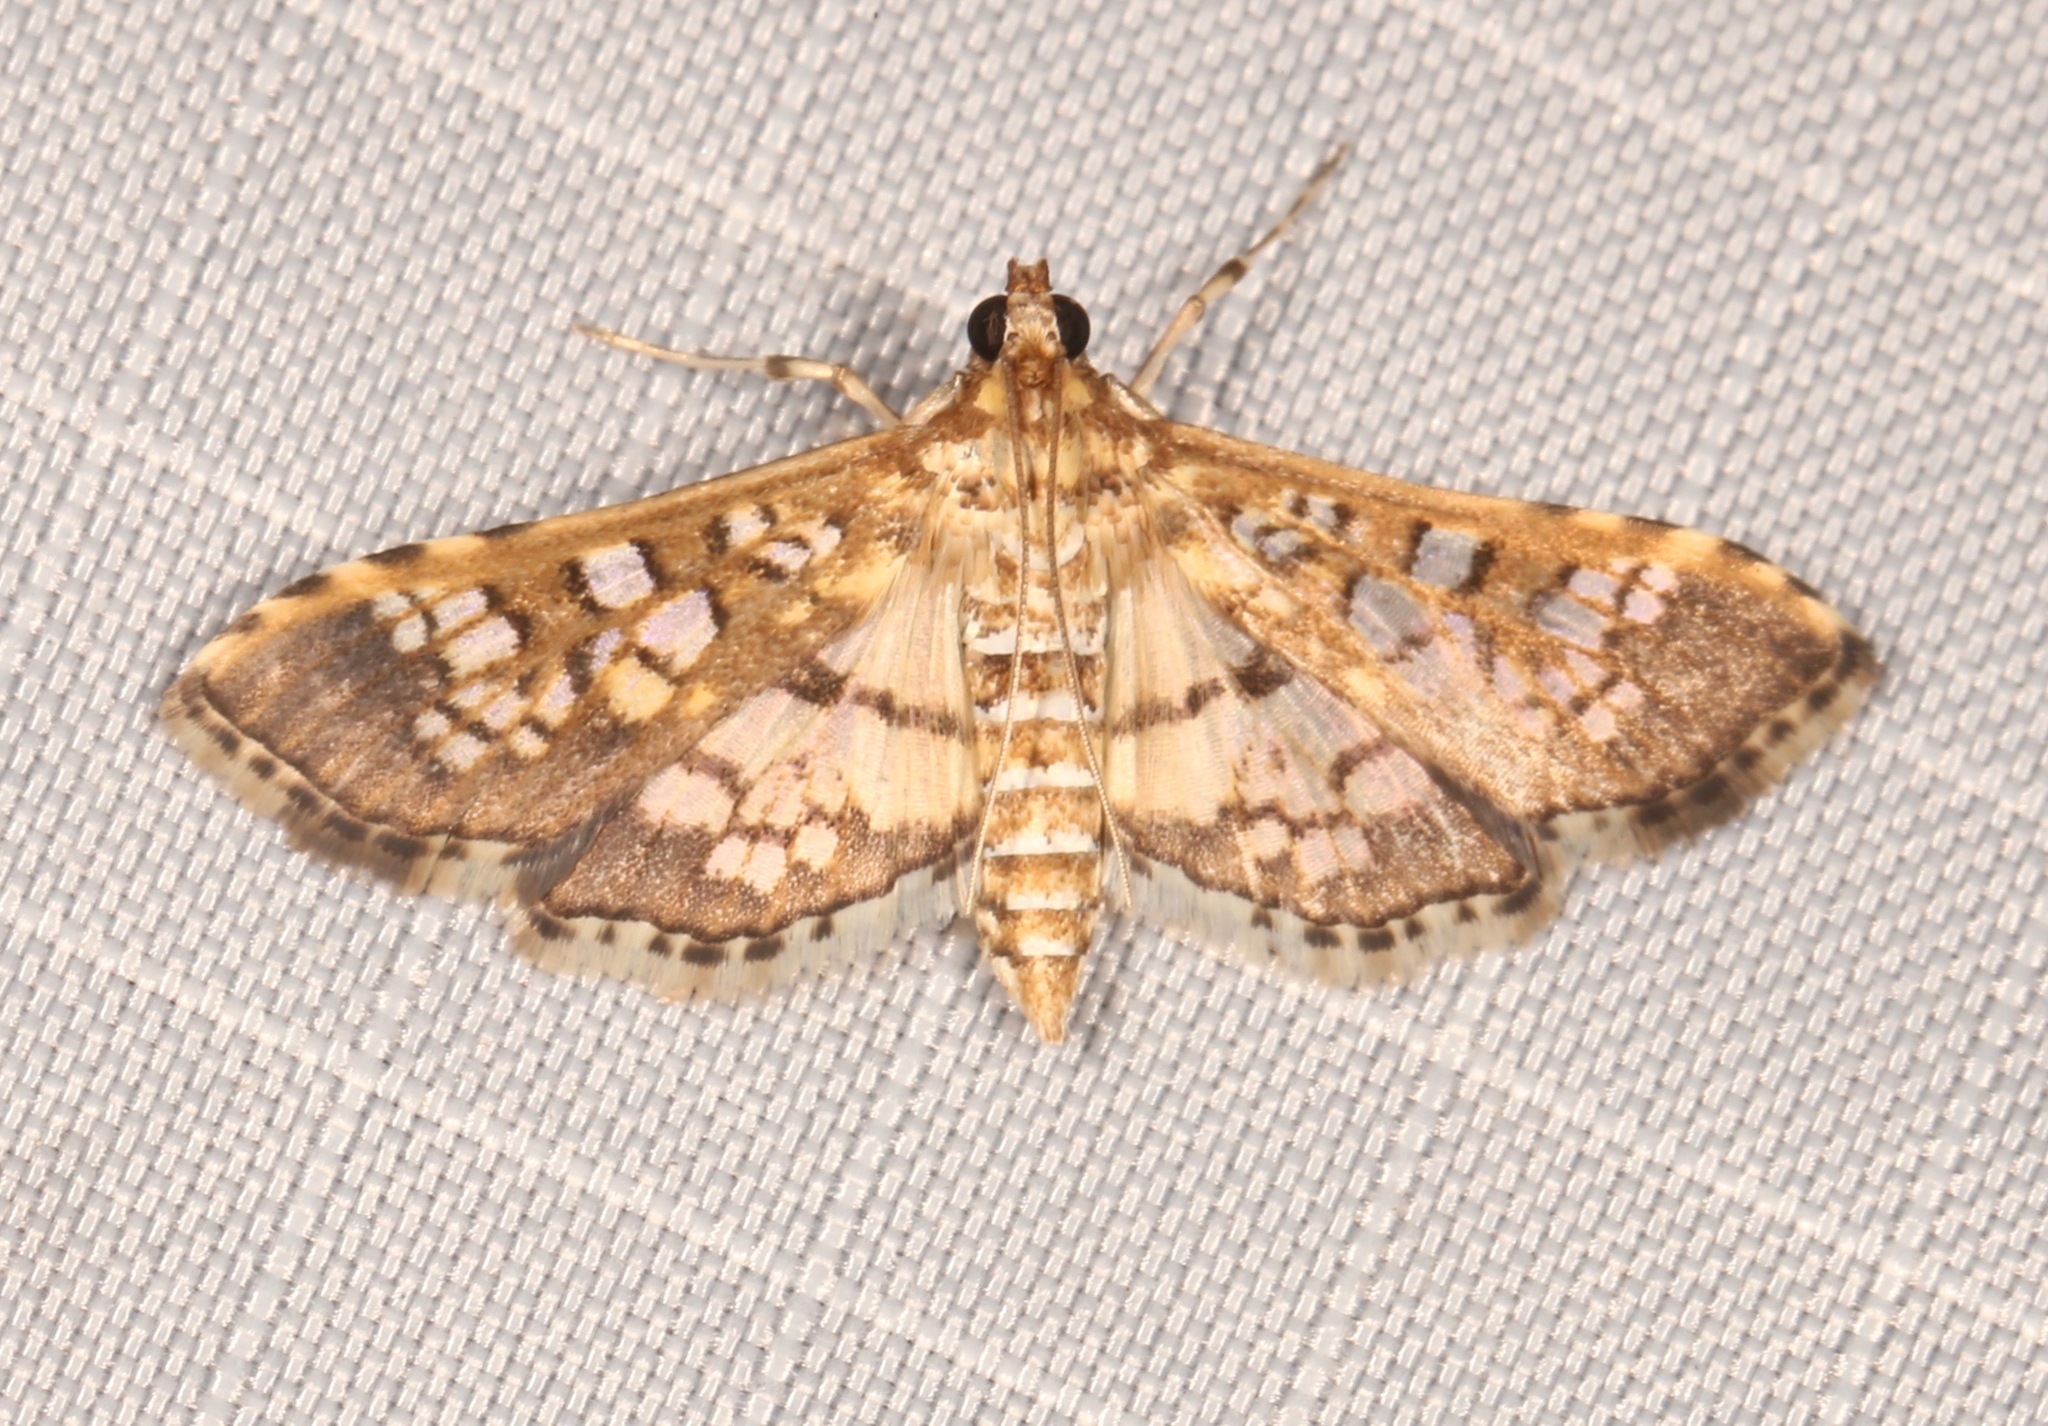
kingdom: Animalia
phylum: Arthropoda
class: Insecta
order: Lepidoptera
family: Crambidae
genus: Samea
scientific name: Samea ecclesialis
